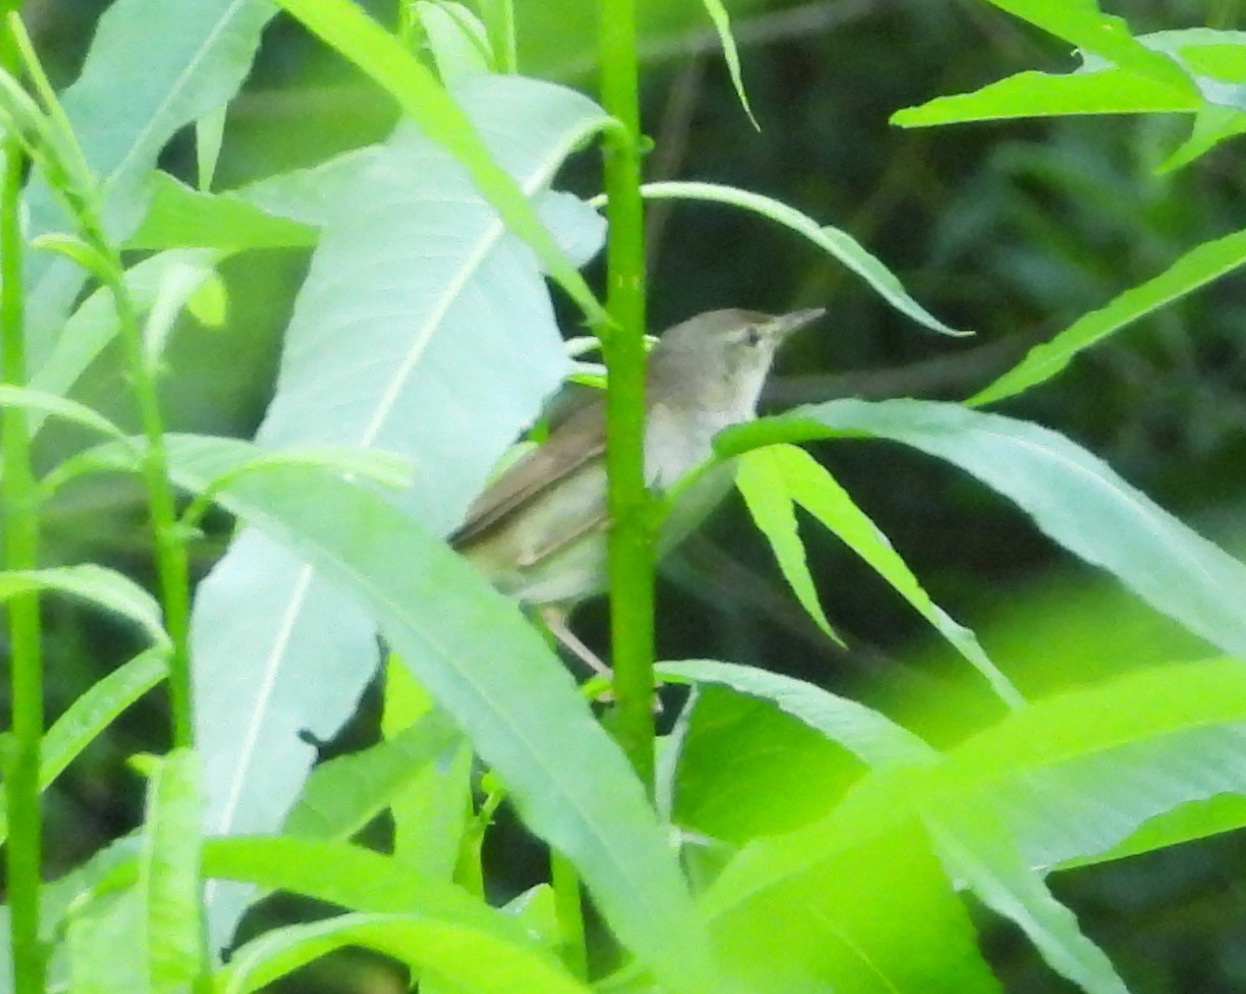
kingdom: Animalia
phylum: Chordata
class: Aves
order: Passeriformes
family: Acrocephalidae
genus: Acrocephalus
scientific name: Acrocephalus dumetorum
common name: Blyth's reed warbler
